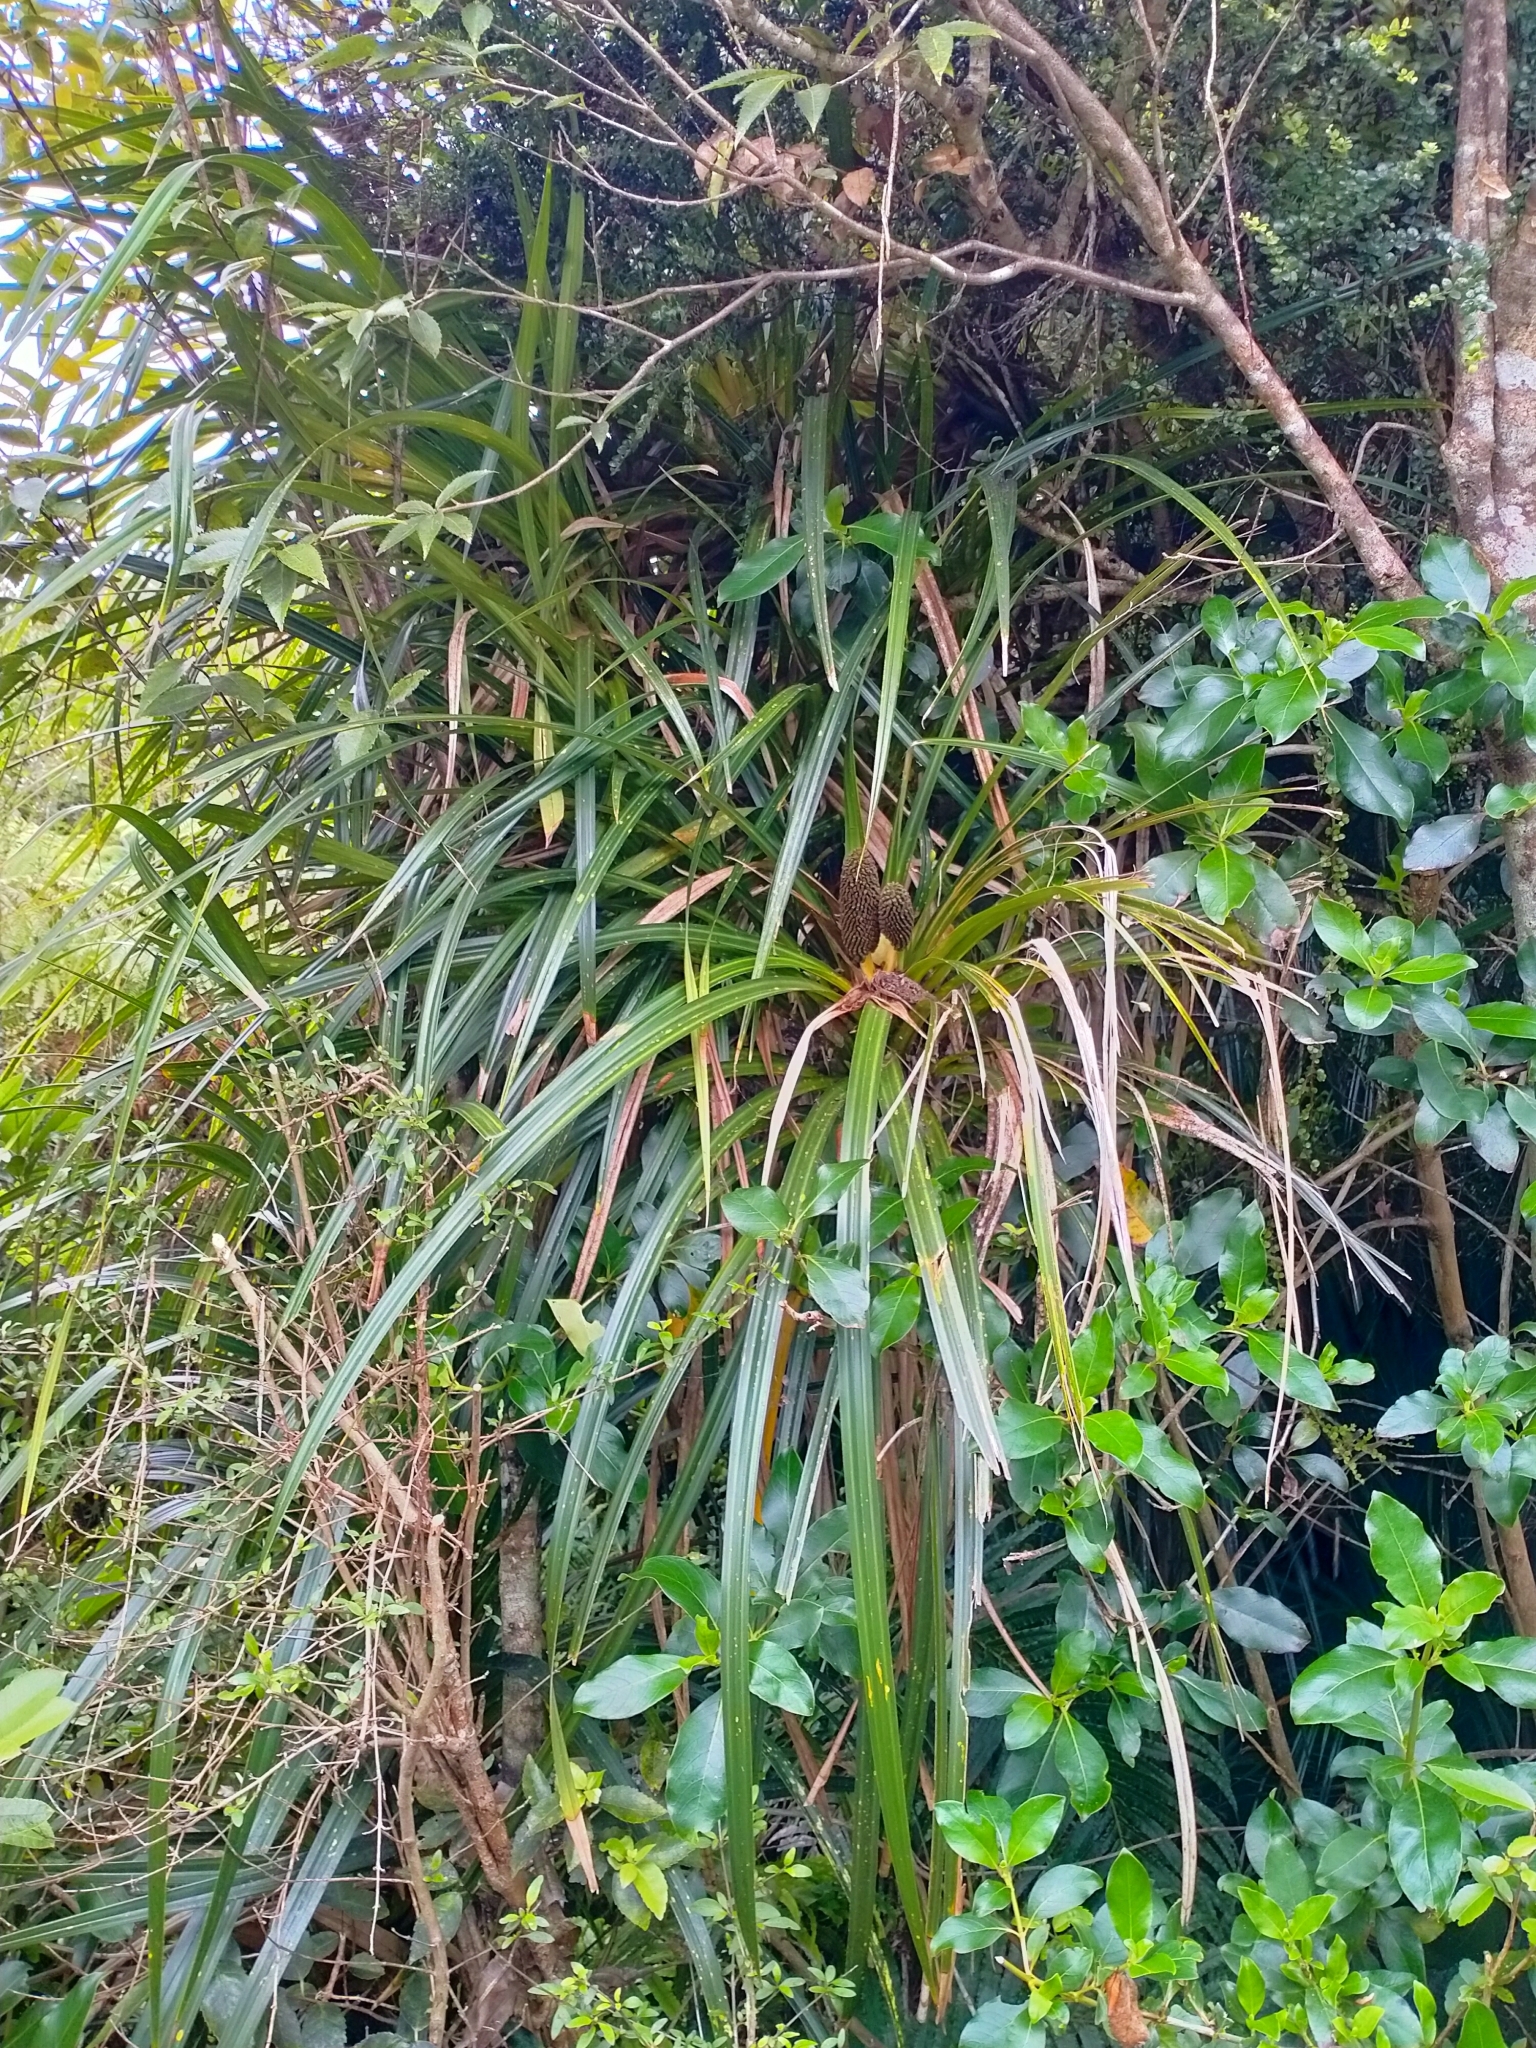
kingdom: Plantae
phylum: Tracheophyta
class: Liliopsida
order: Pandanales
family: Pandanaceae
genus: Freycinetia
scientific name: Freycinetia banksii
